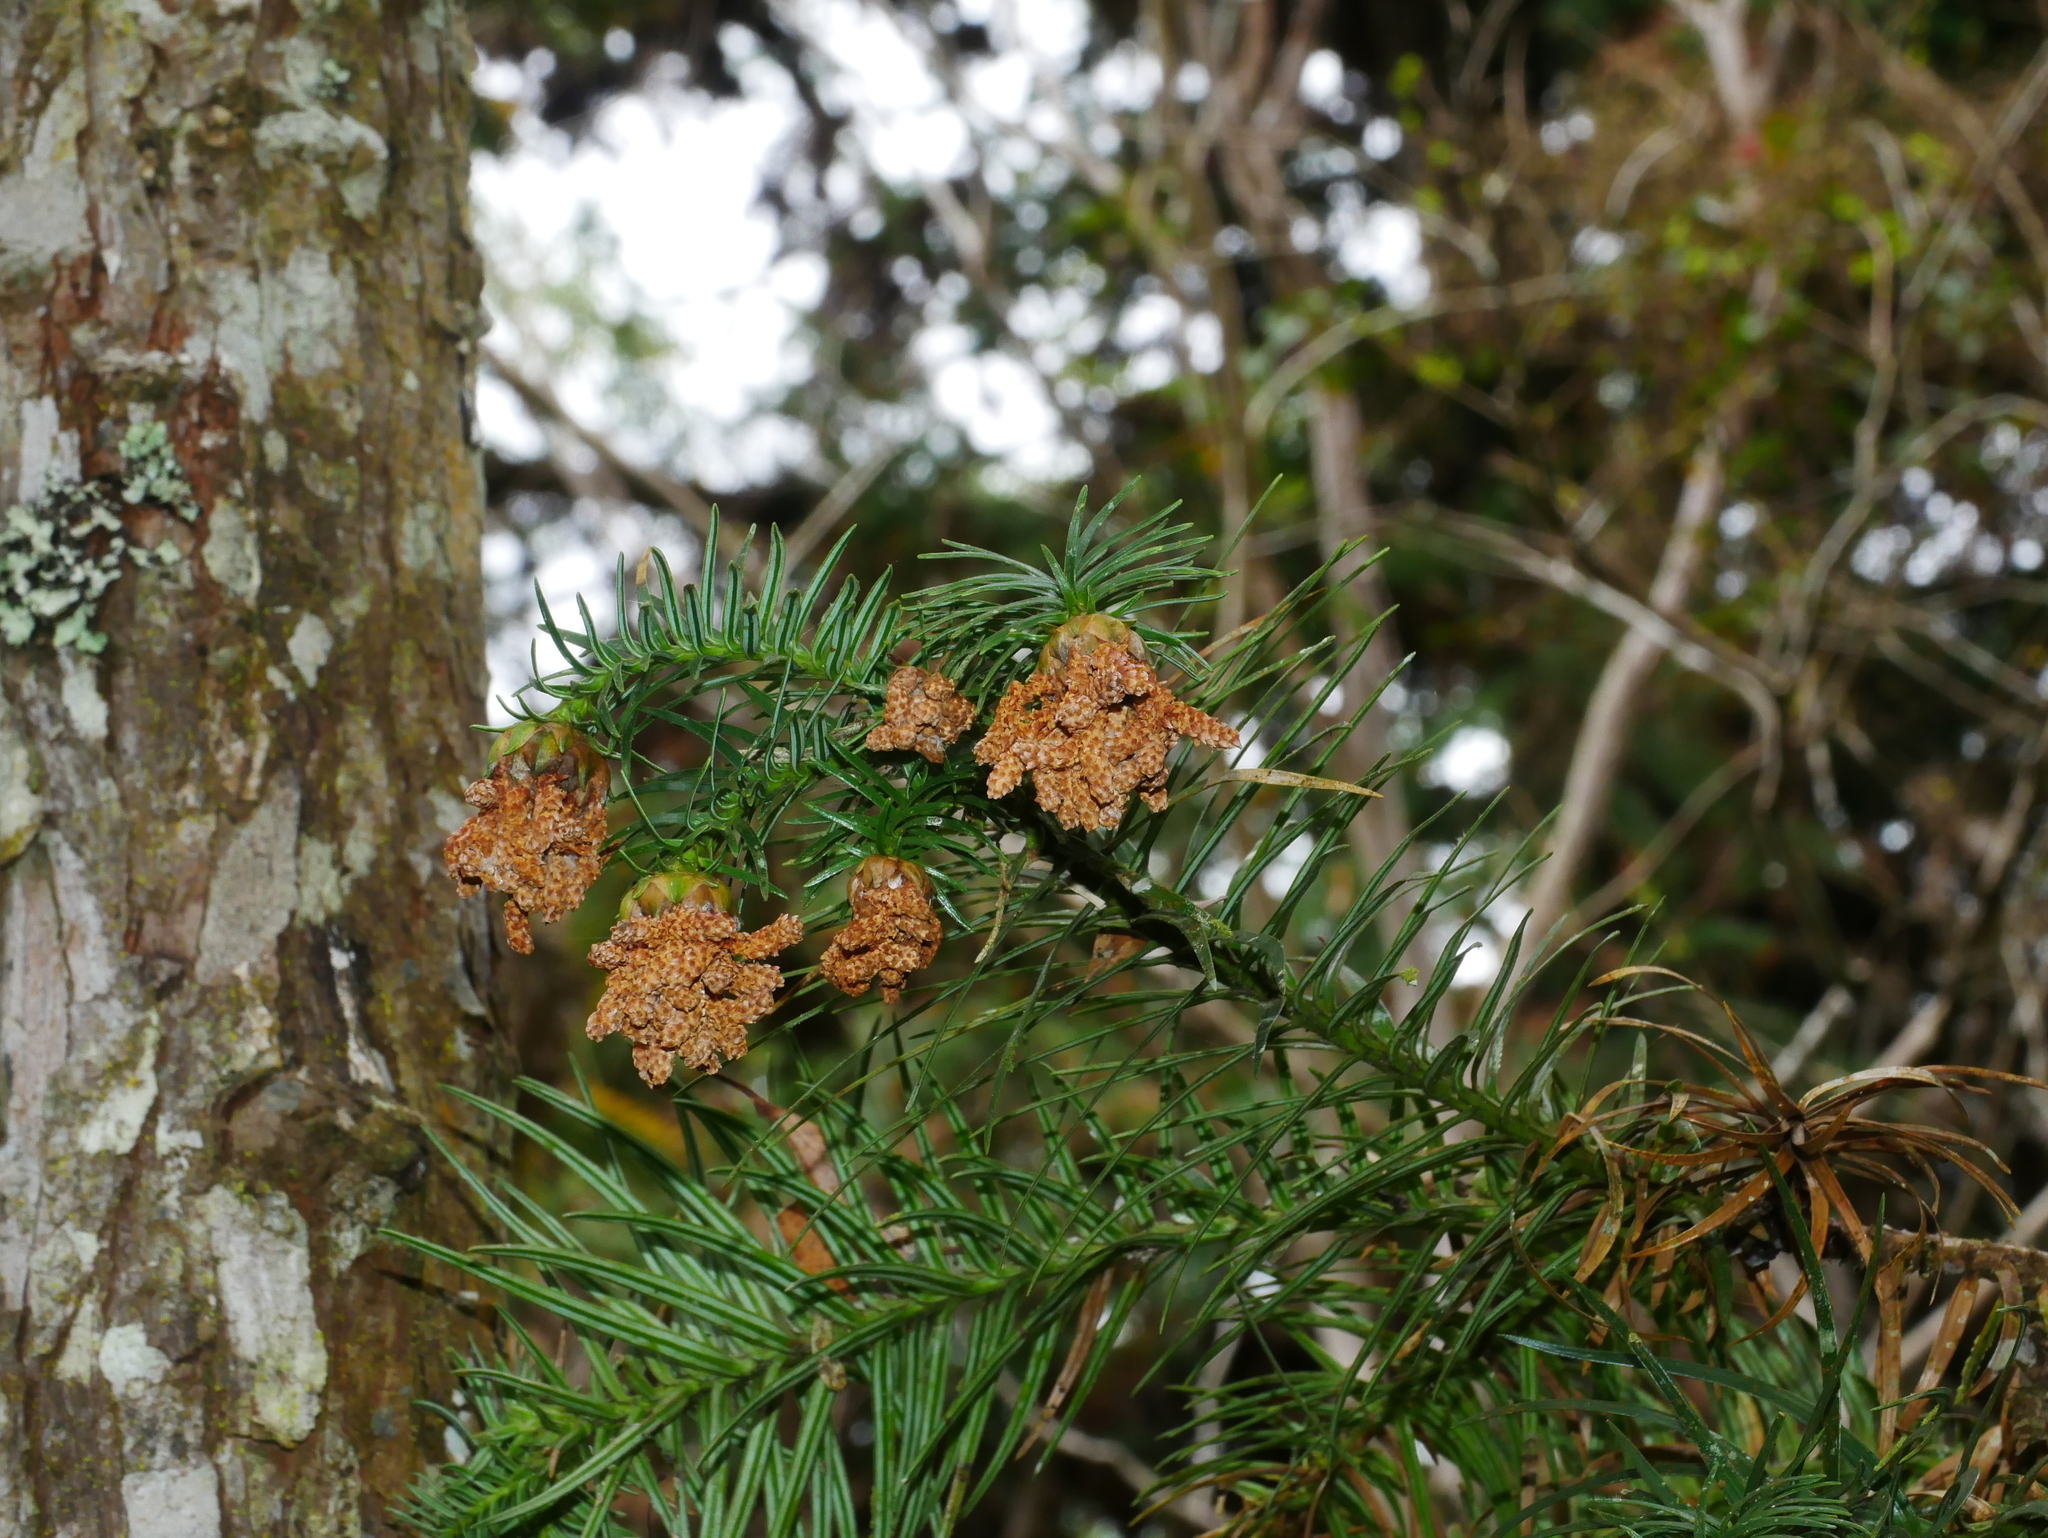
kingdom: Plantae
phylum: Tracheophyta
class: Pinopsida
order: Pinales
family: Cupressaceae
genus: Cunninghamia
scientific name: Cunninghamia konishii
